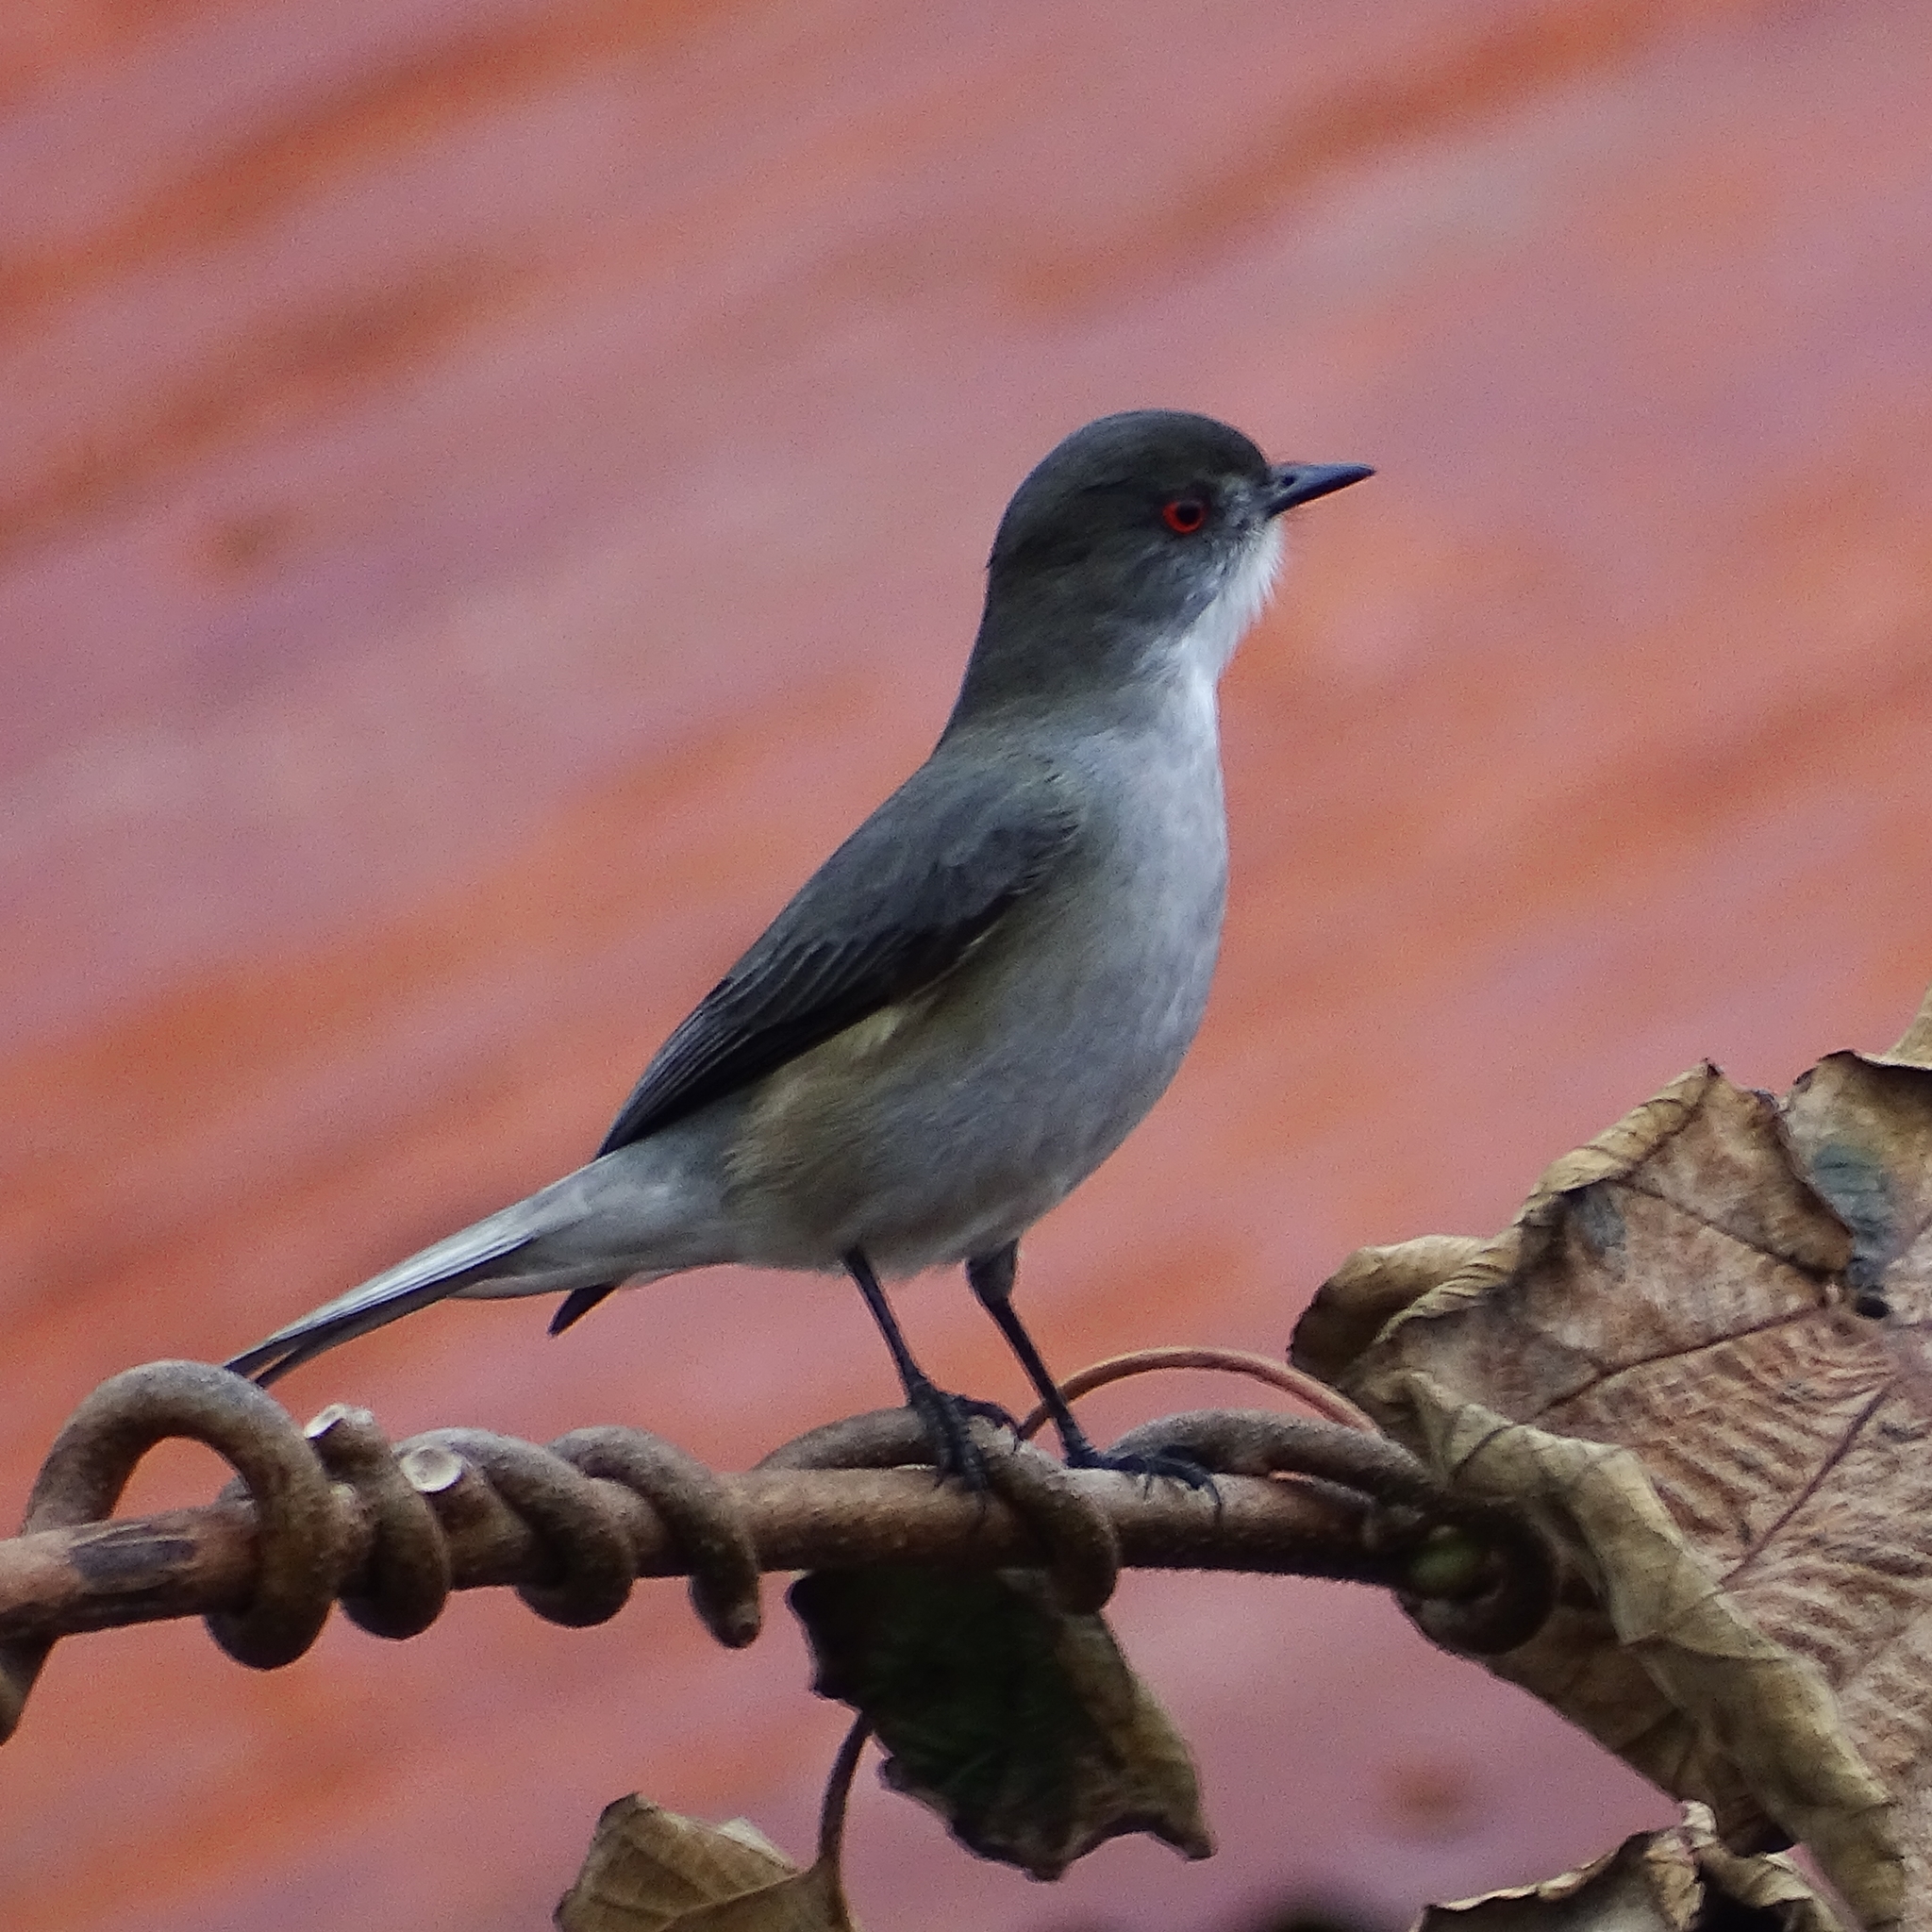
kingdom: Animalia
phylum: Chordata
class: Aves
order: Passeriformes
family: Tyrannidae
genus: Xolmis
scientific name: Xolmis pyrope
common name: Fire-eyed diucon
